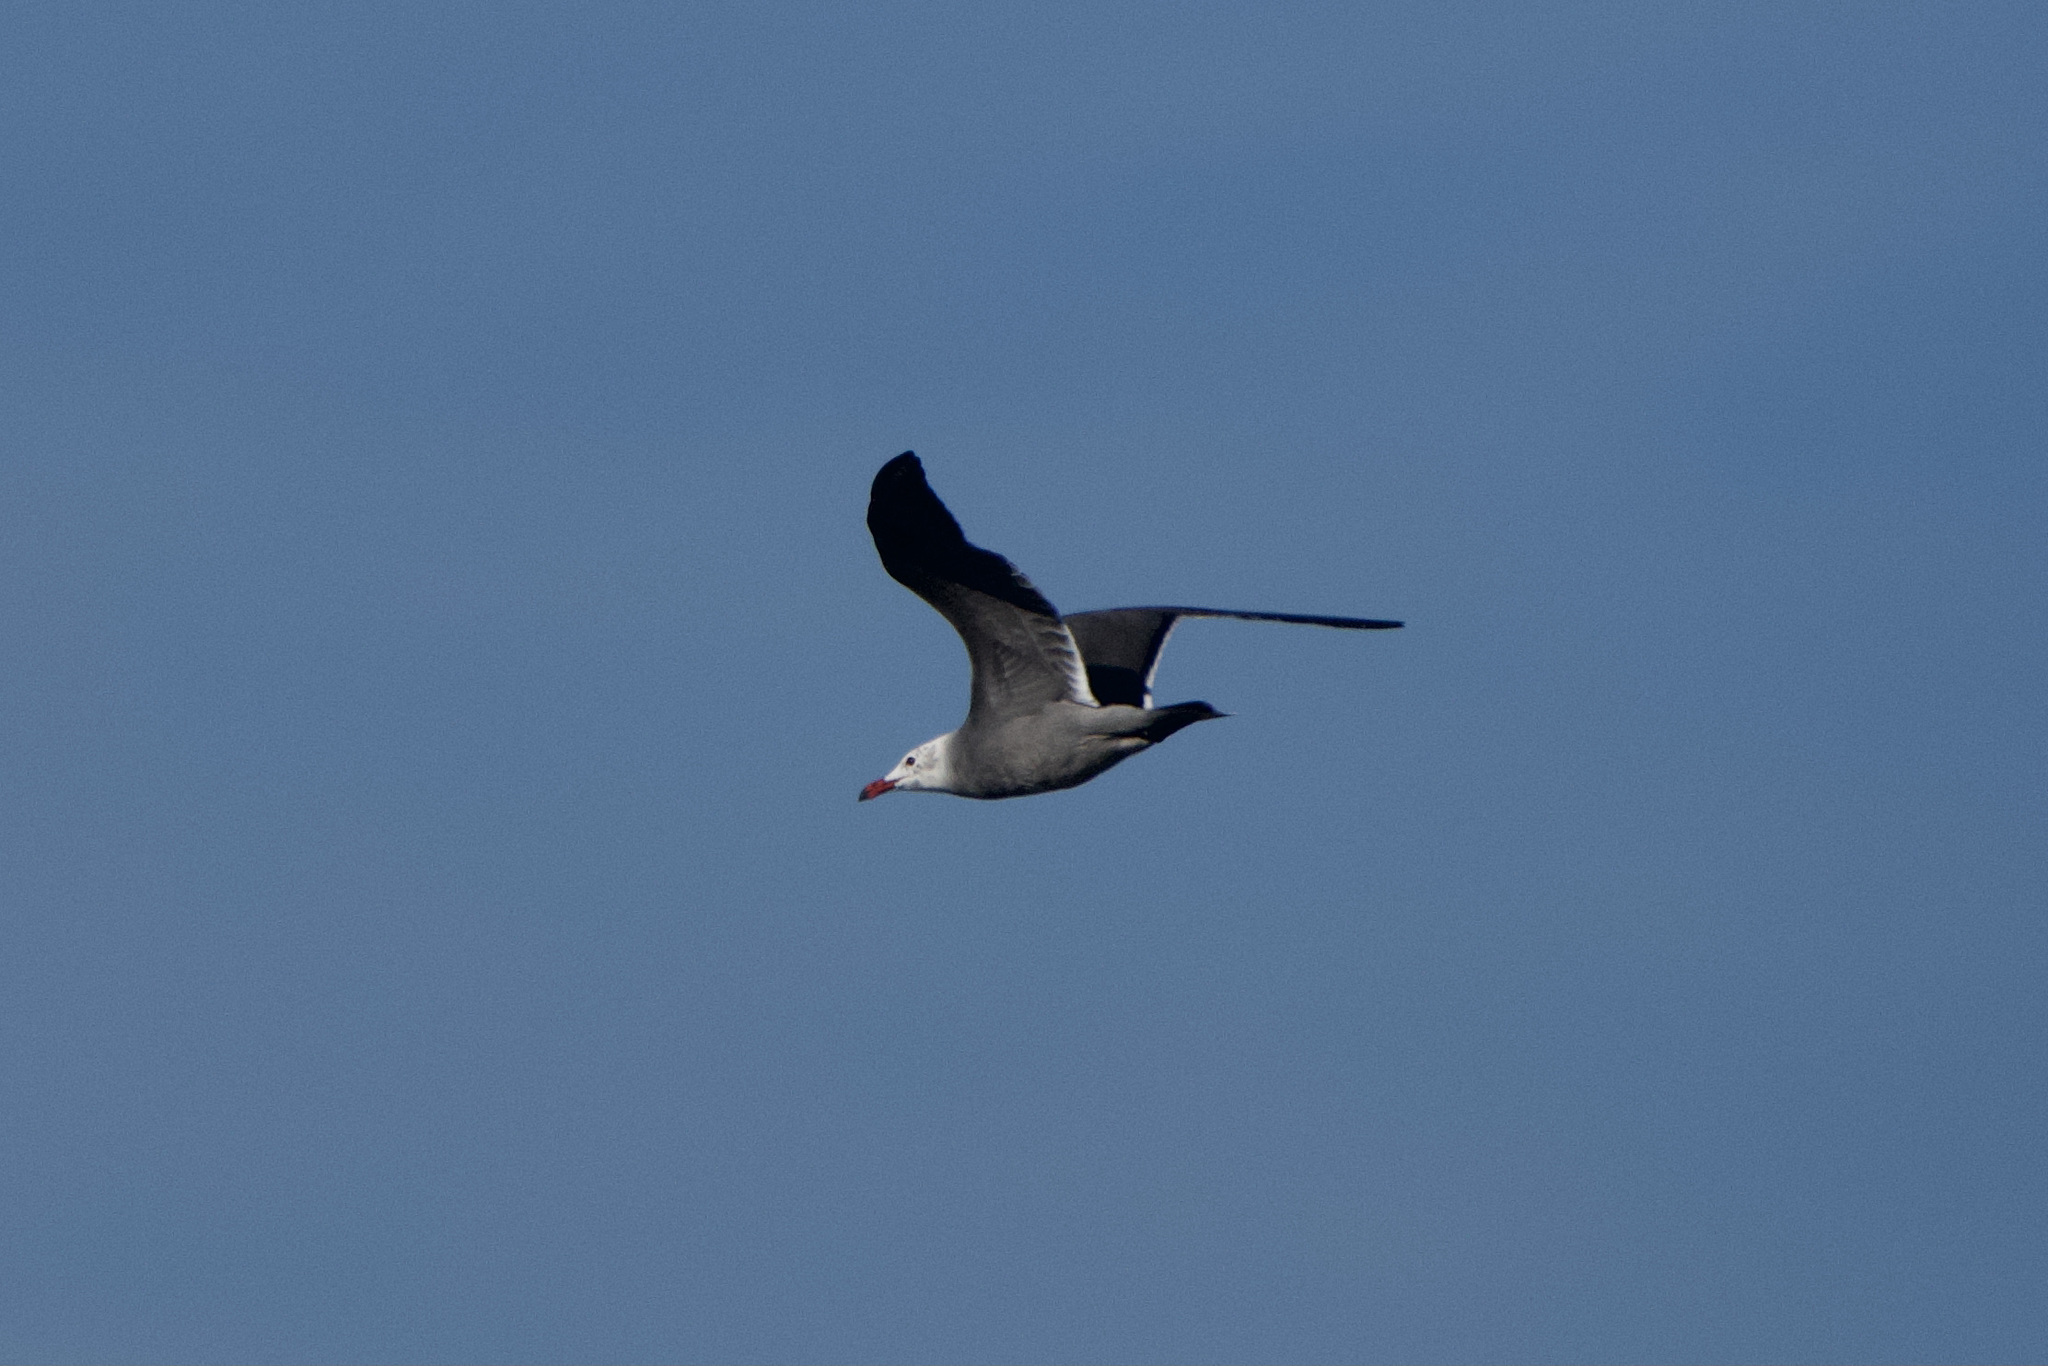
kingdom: Animalia
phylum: Chordata
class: Aves
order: Charadriiformes
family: Laridae
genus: Larus
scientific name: Larus heermanni
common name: Heermann's gull
